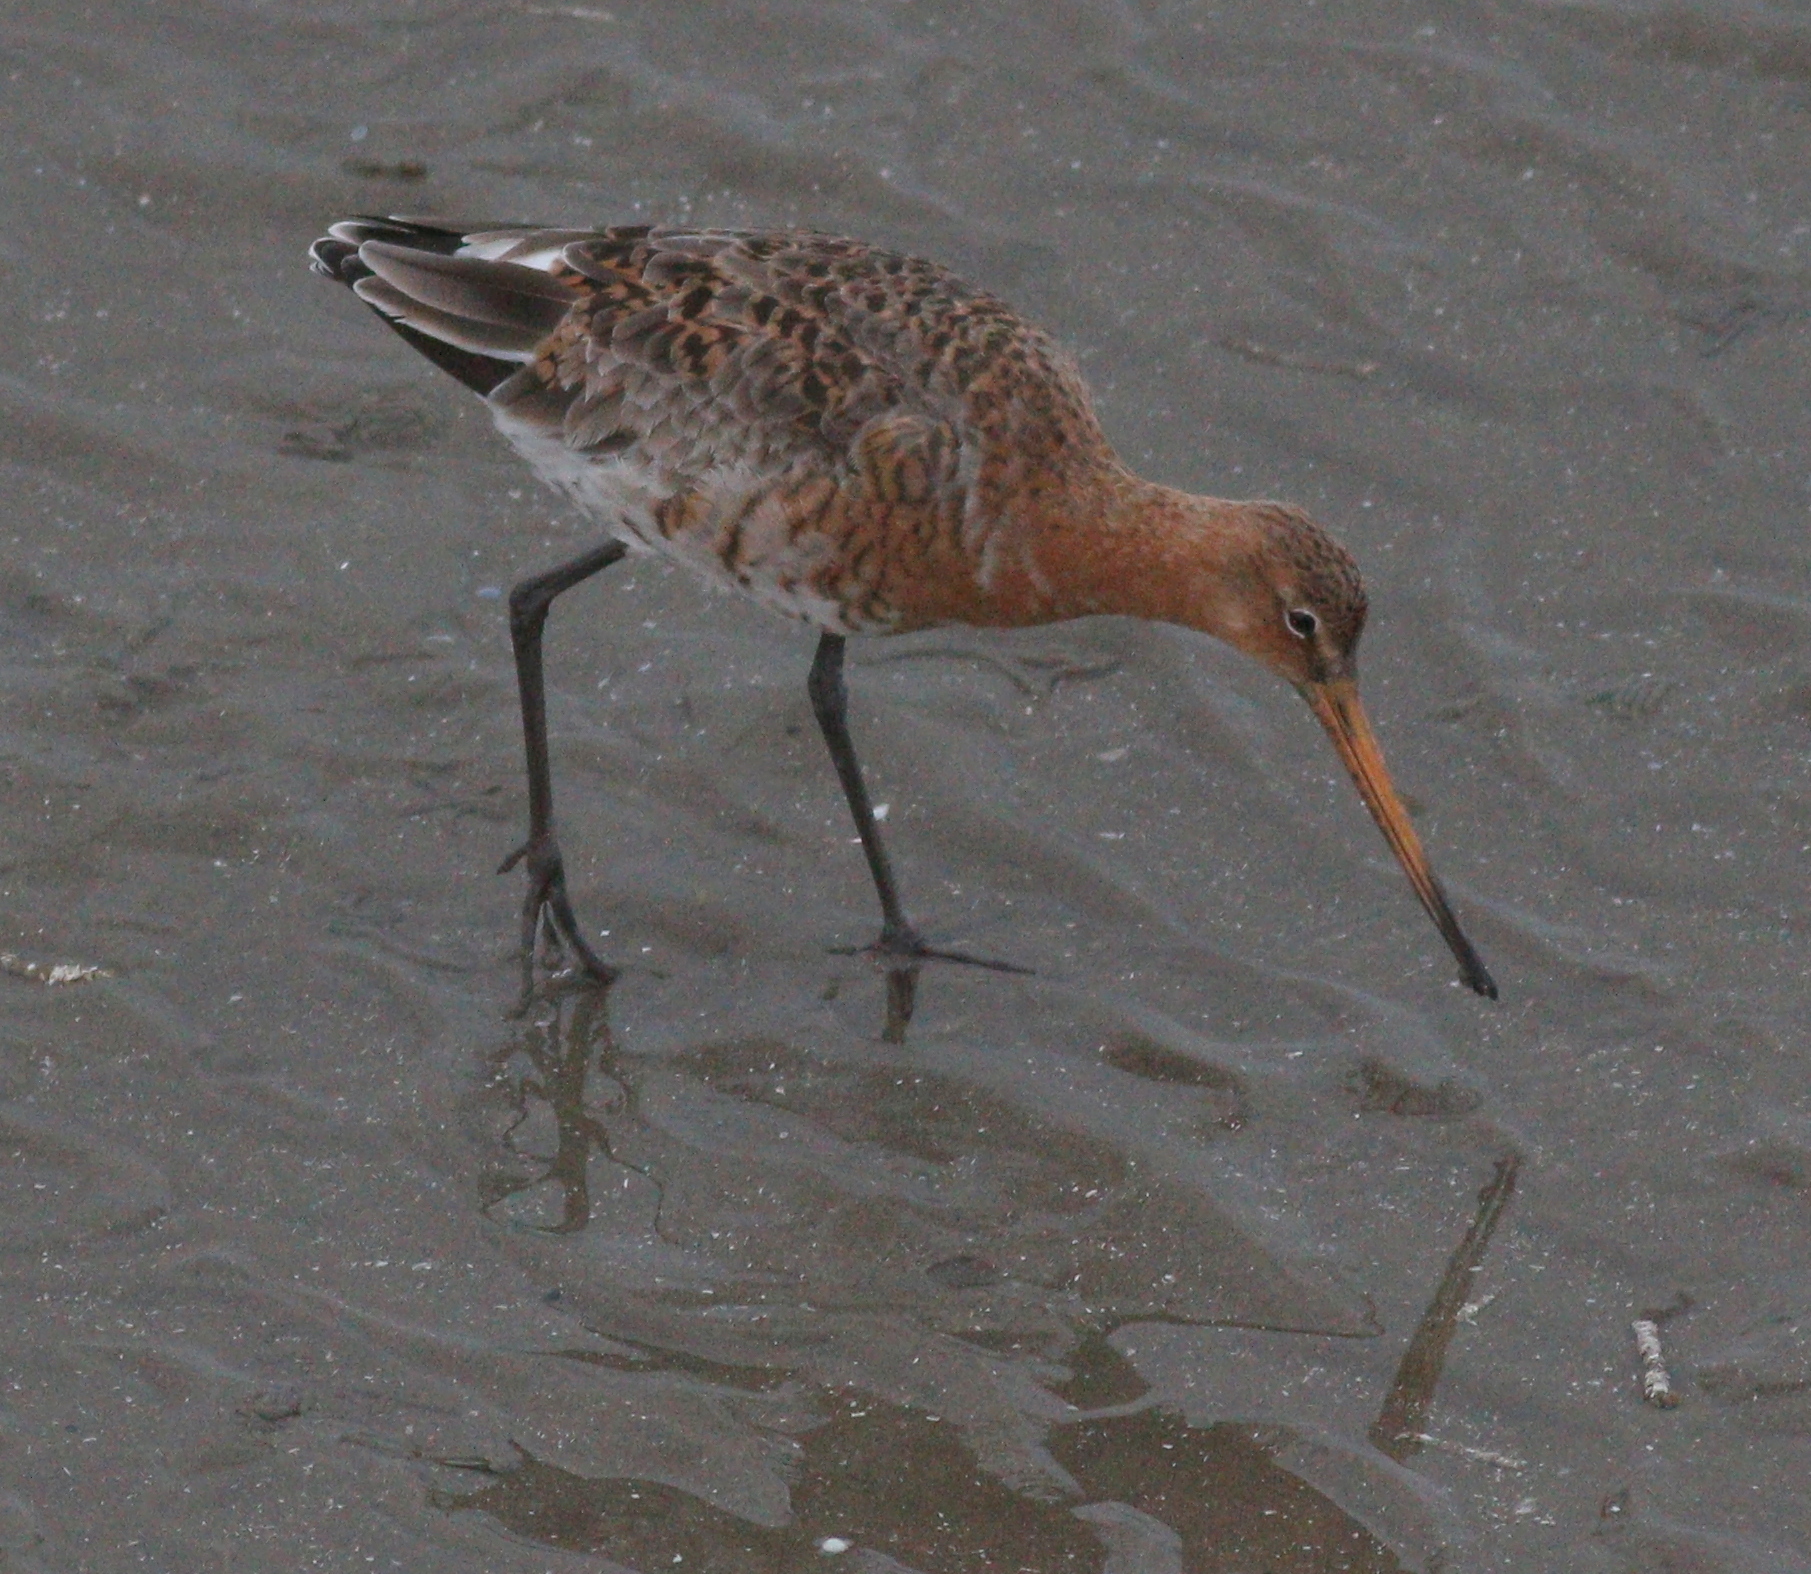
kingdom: Animalia
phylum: Chordata
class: Aves
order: Charadriiformes
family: Scolopacidae
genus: Limosa
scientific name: Limosa limosa
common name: Black-tailed godwit
